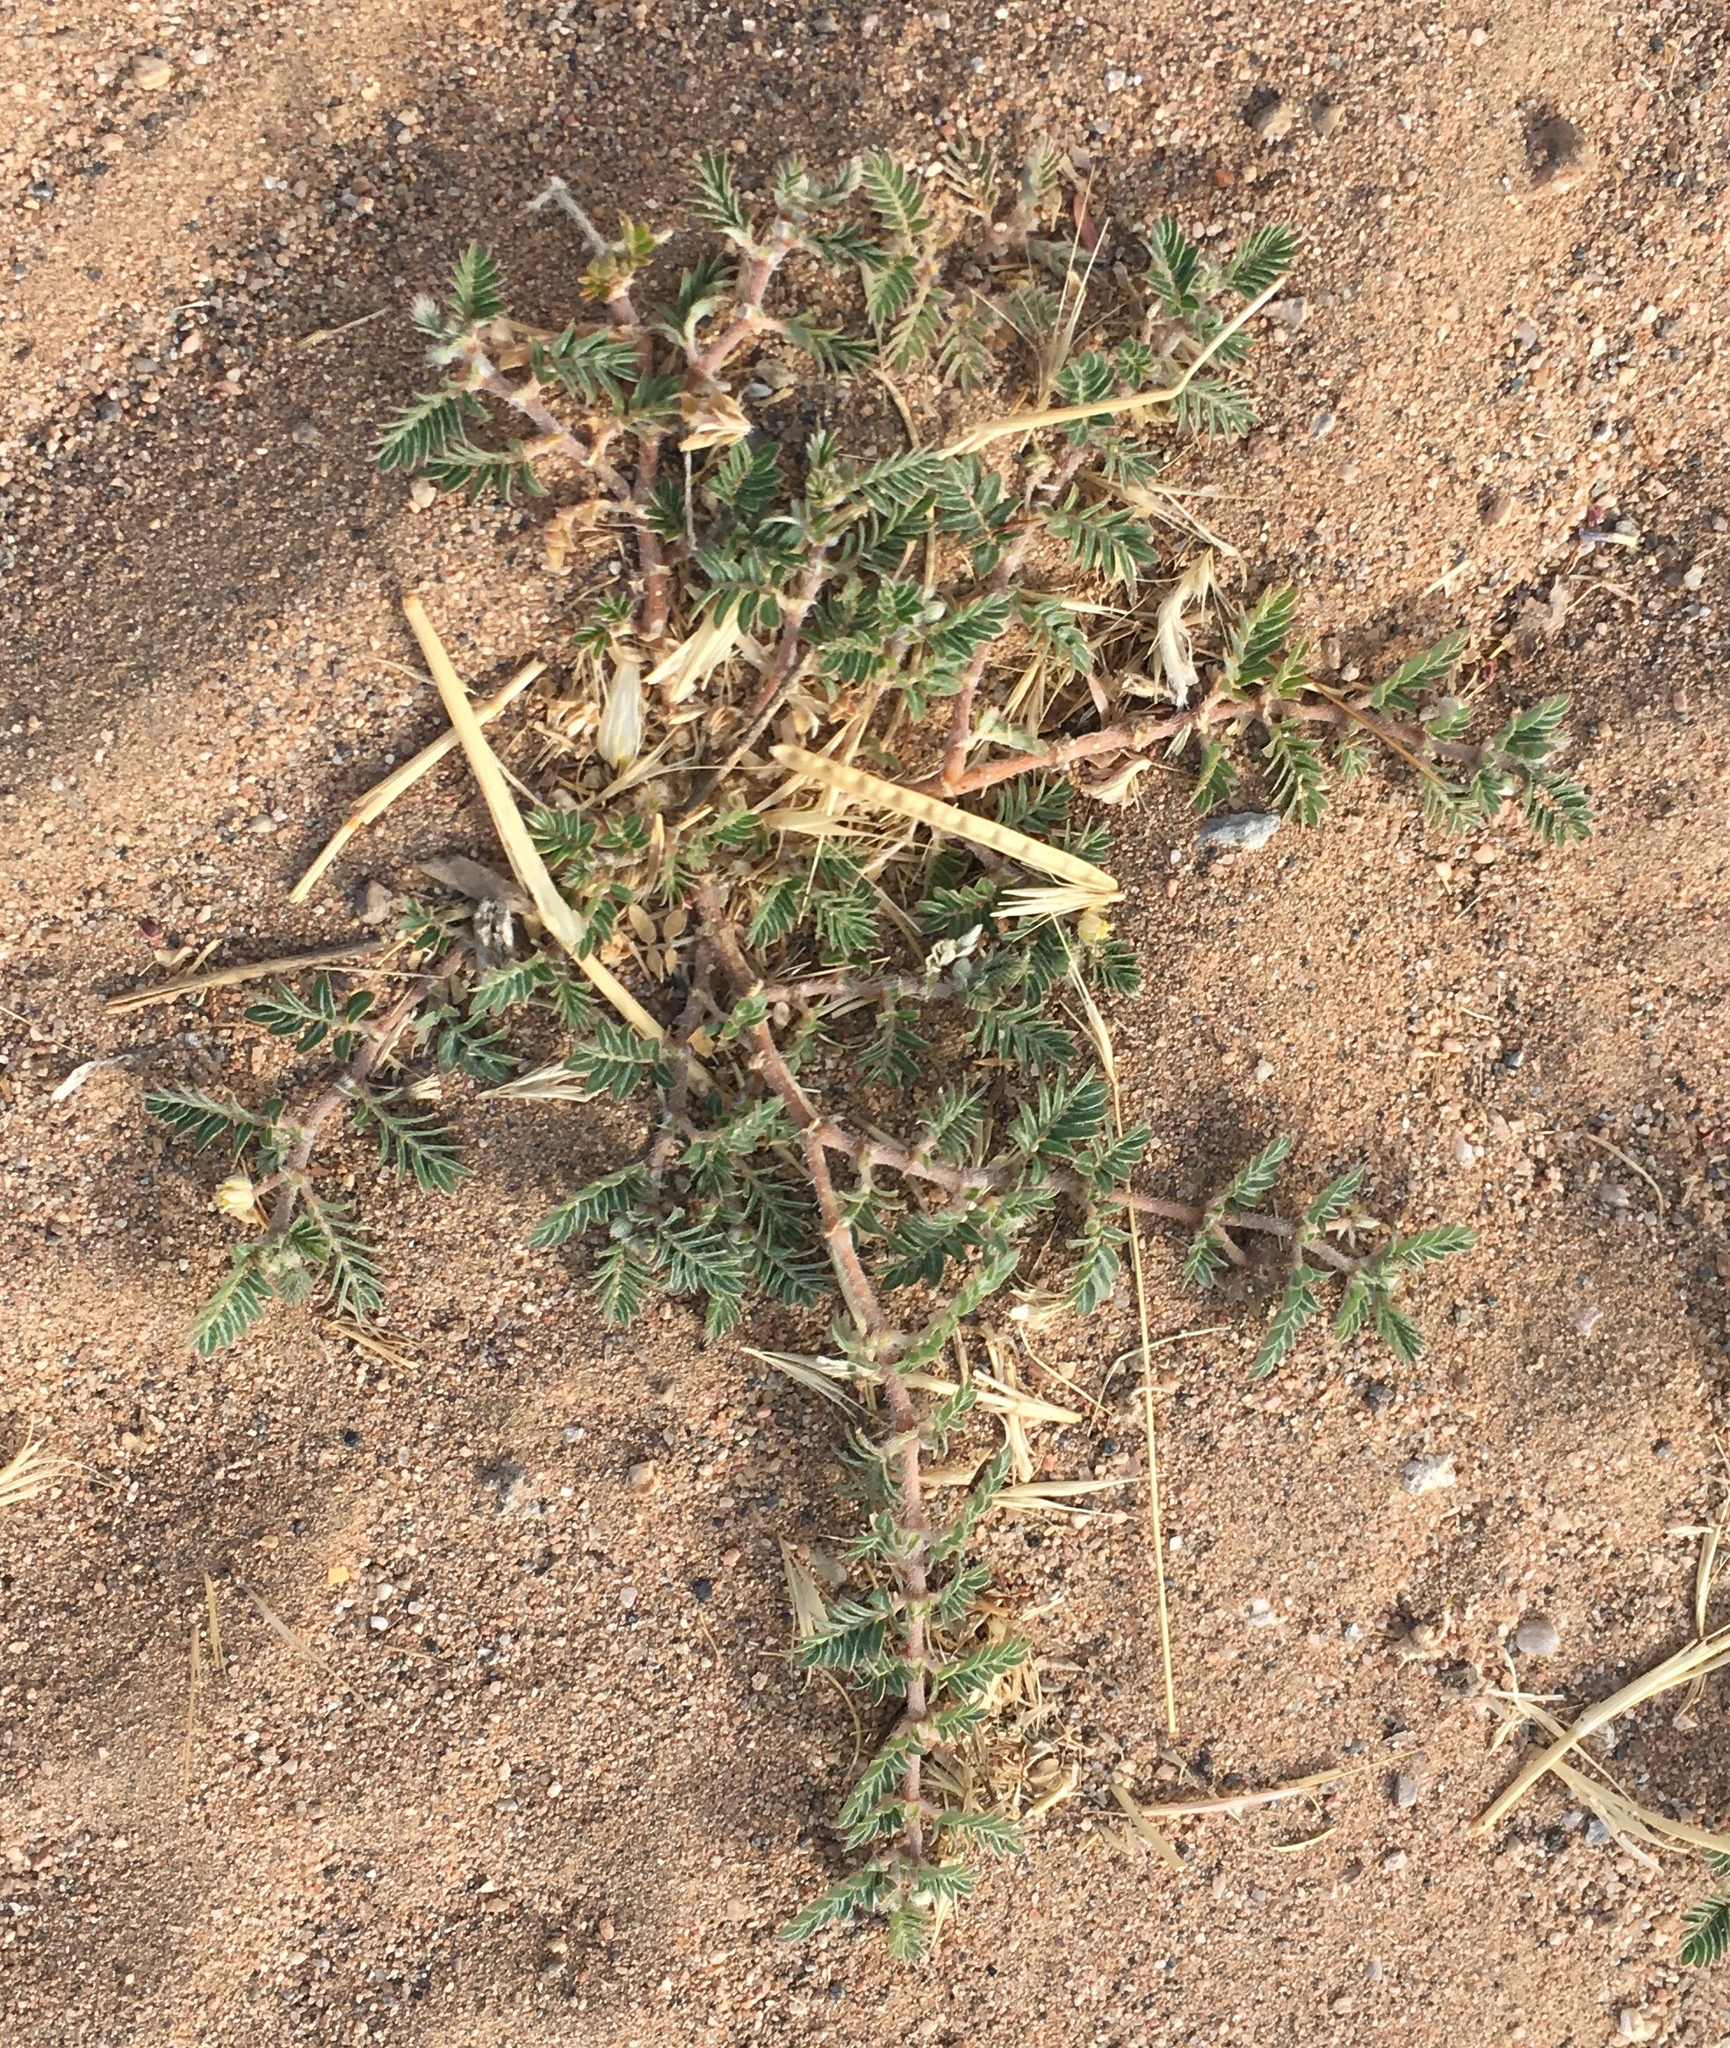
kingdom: Plantae
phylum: Tracheophyta
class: Magnoliopsida
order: Zygophyllales
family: Zygophyllaceae
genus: Tribulus
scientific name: Tribulus terrestris
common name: Puncturevine
